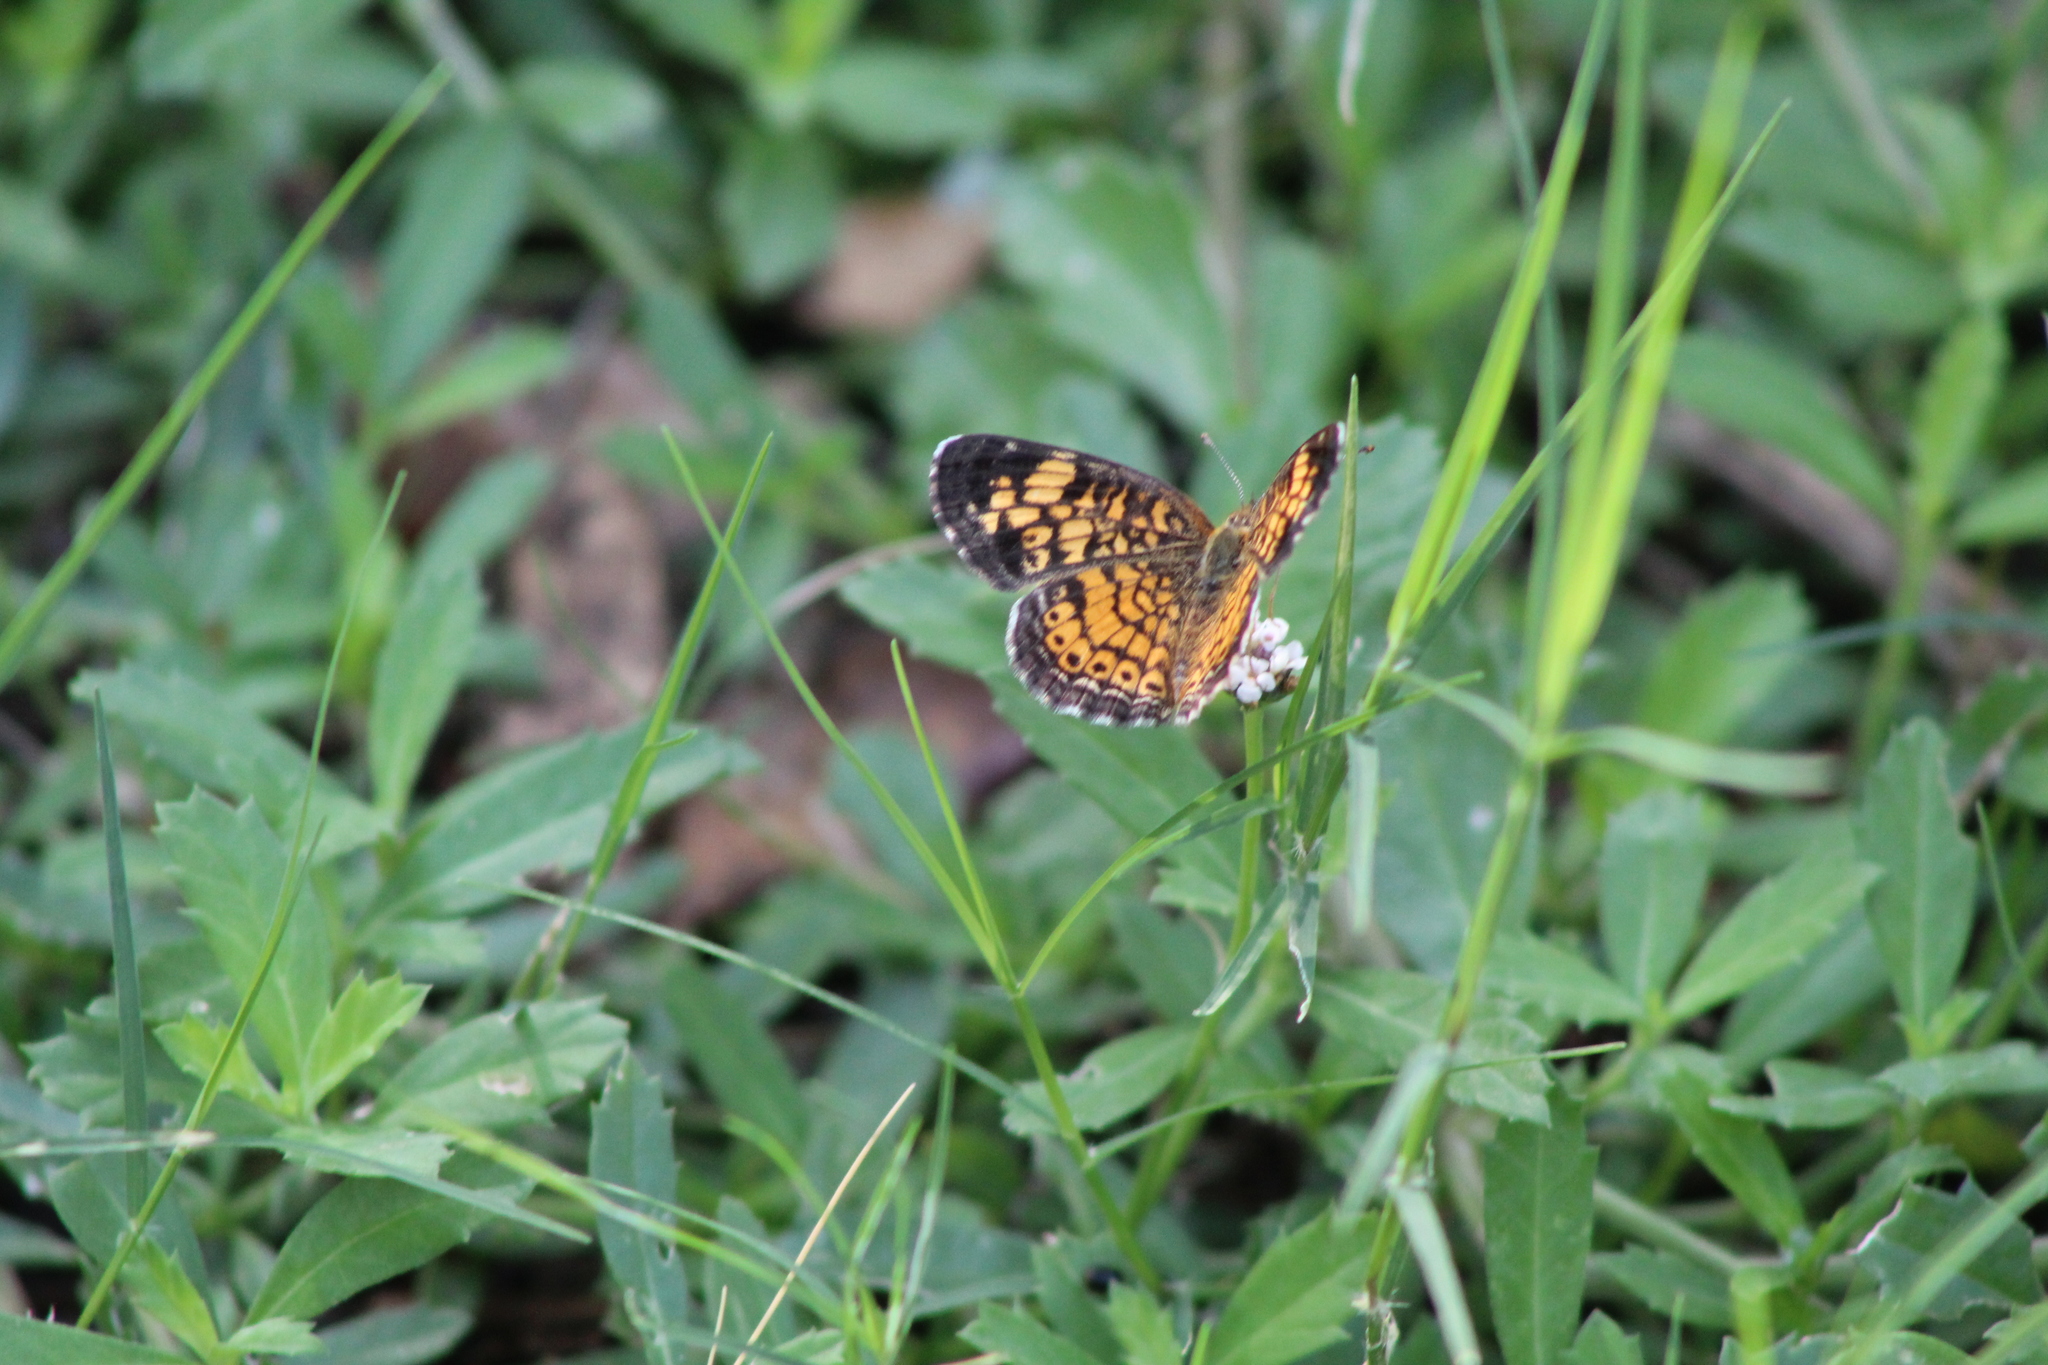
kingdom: Animalia
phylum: Arthropoda
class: Insecta
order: Lepidoptera
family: Nymphalidae
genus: Phyciodes
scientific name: Phyciodes tharos
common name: Pearl crescent
